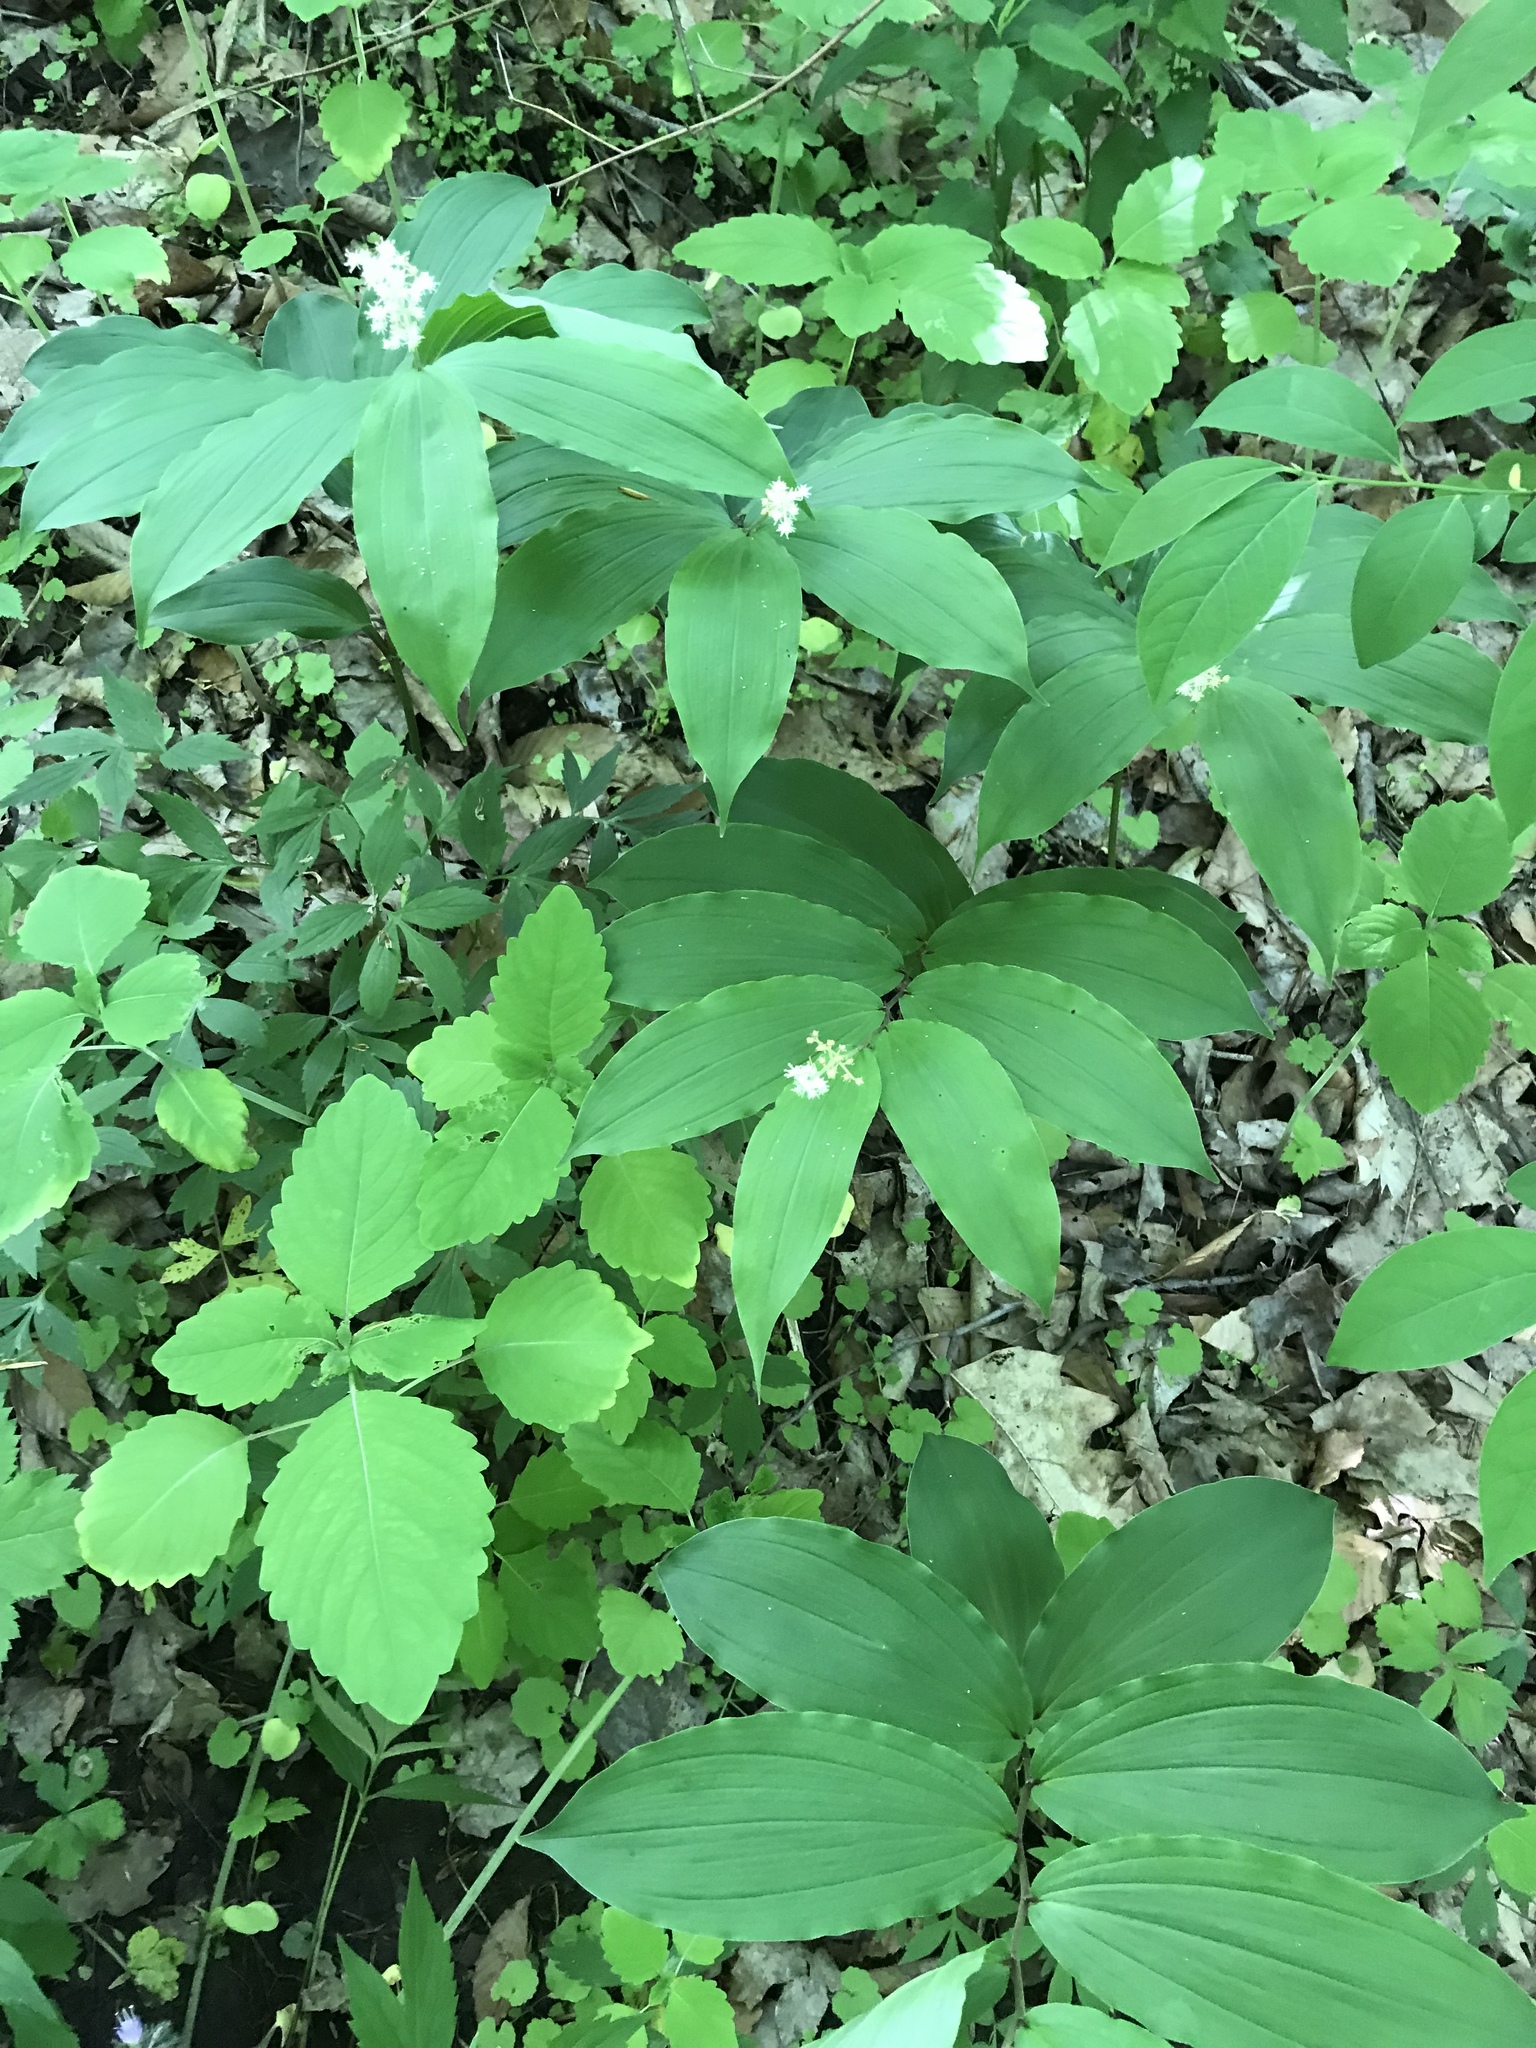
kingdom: Plantae
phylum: Tracheophyta
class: Liliopsida
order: Asparagales
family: Asparagaceae
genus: Maianthemum
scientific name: Maianthemum racemosum
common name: False spikenard
